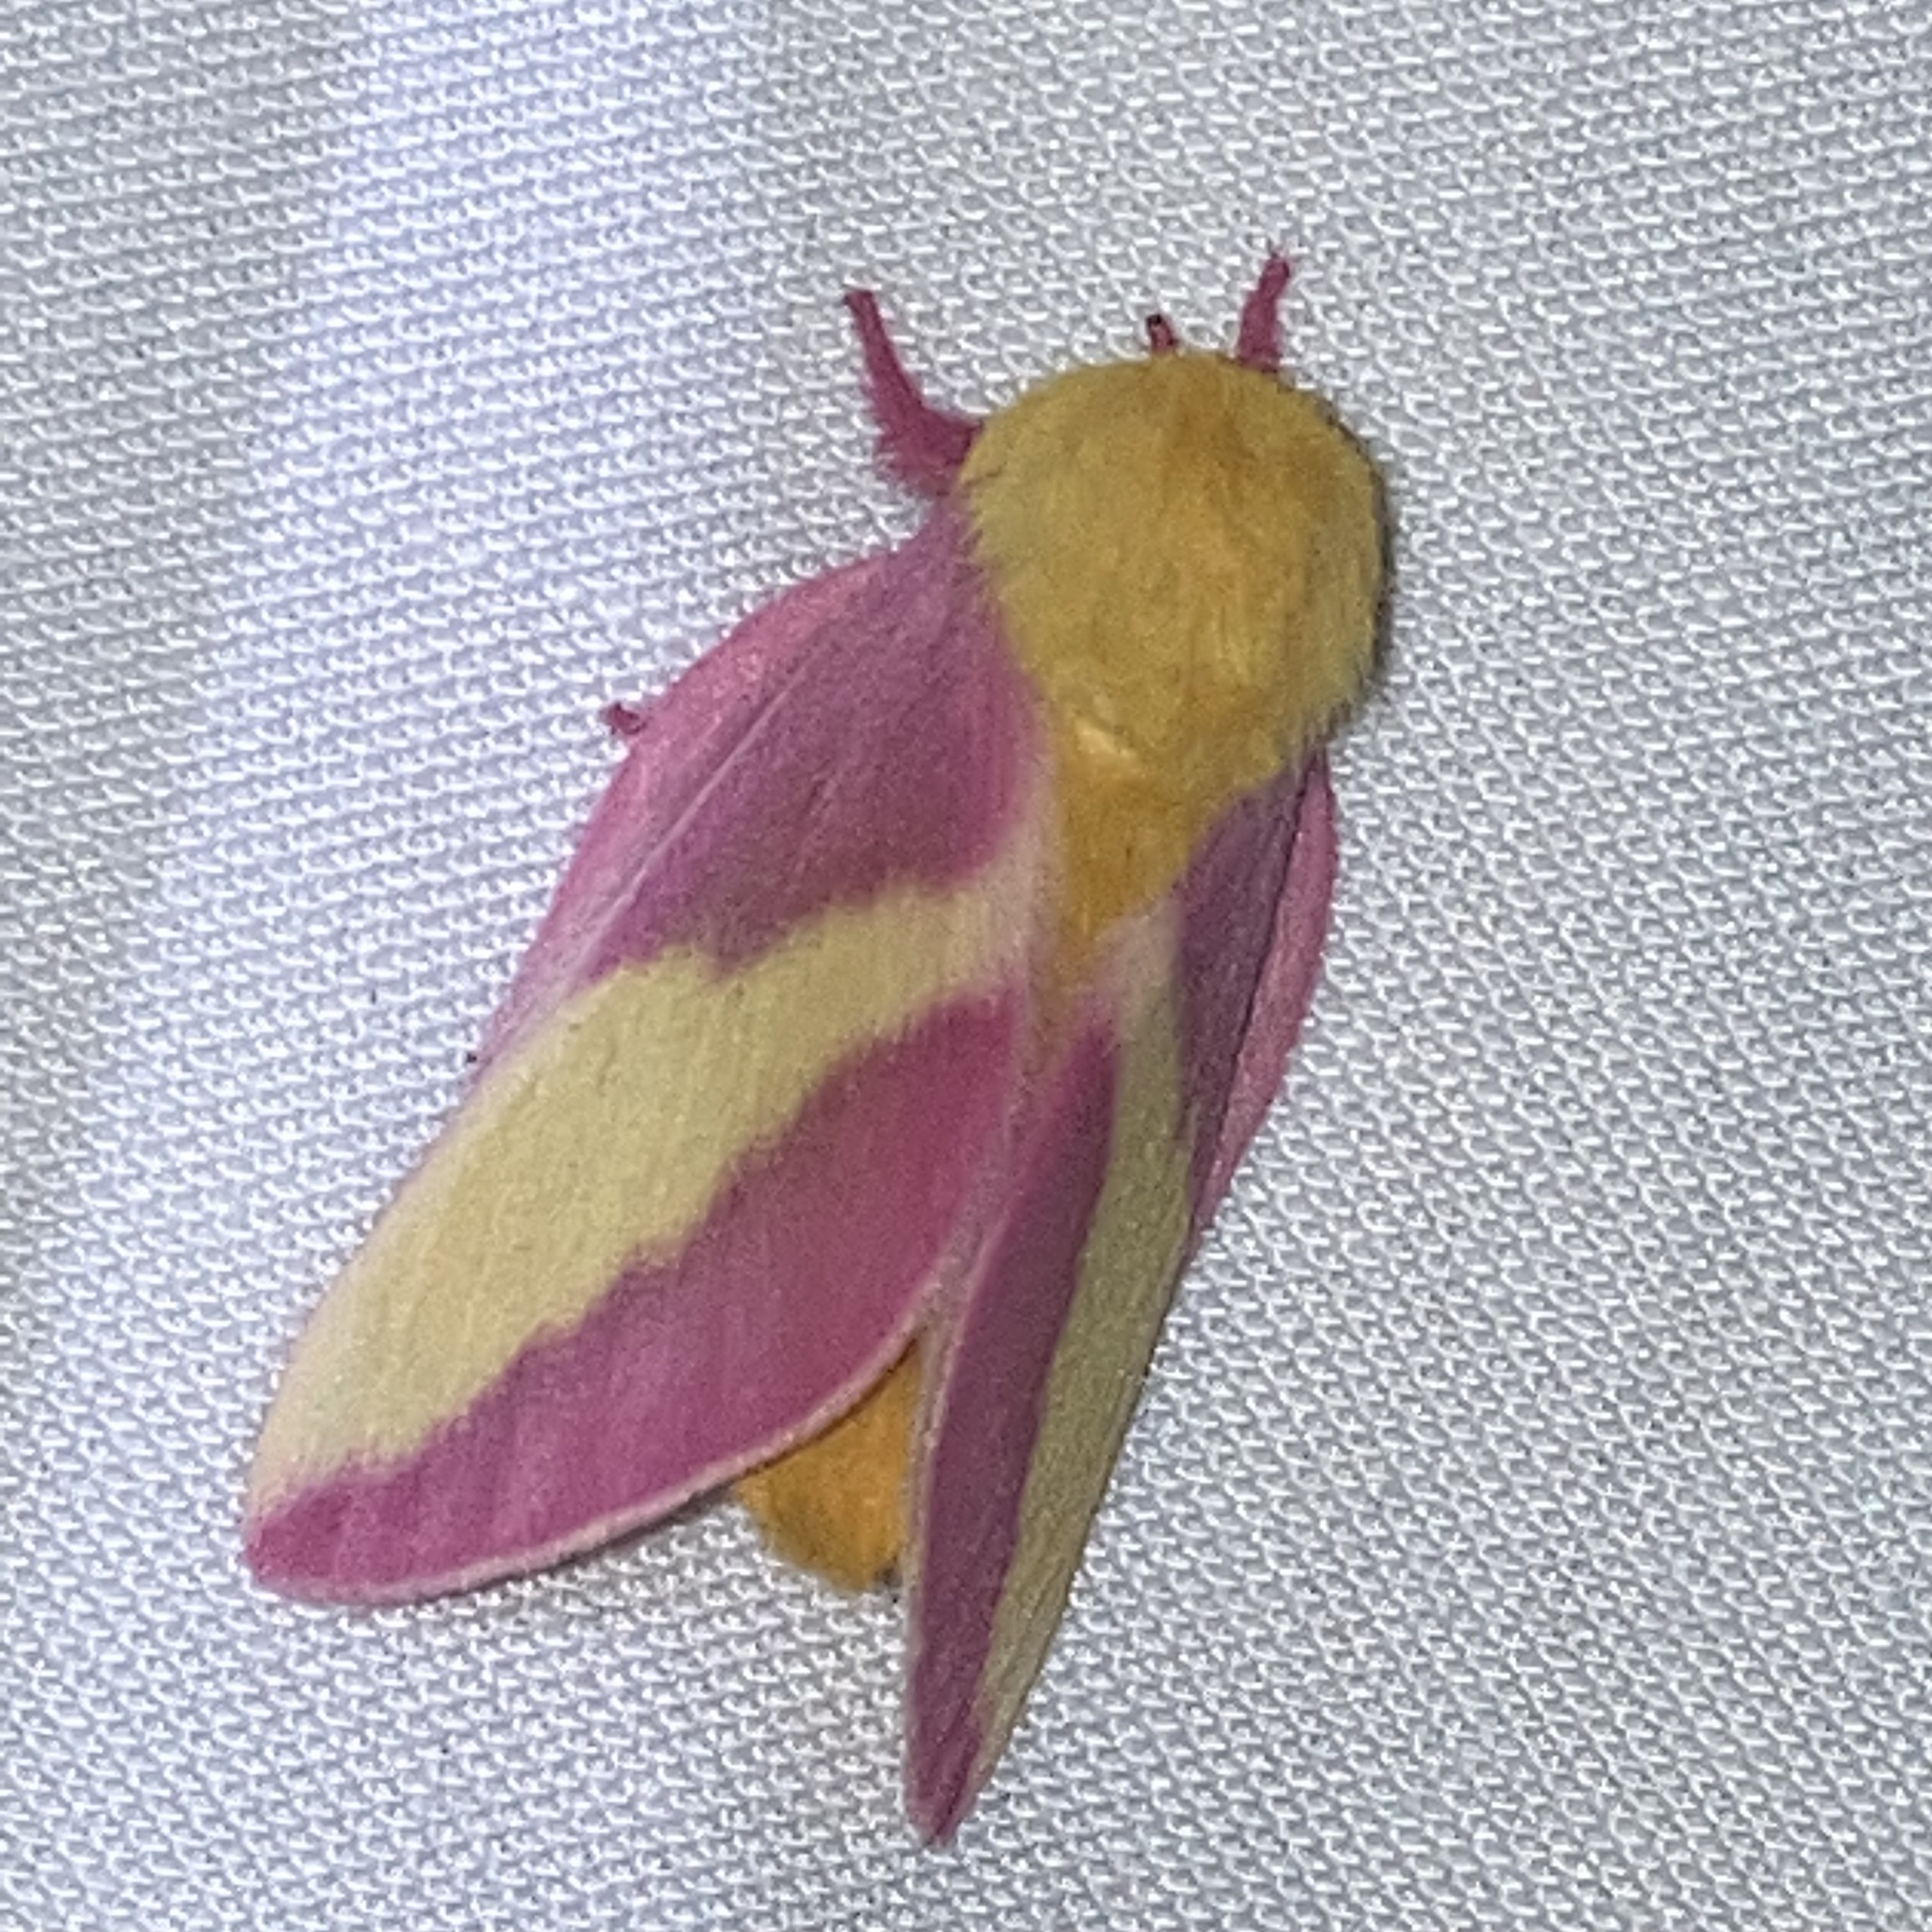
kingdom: Animalia
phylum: Arthropoda
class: Insecta
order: Lepidoptera
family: Saturniidae
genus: Dryocampa
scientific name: Dryocampa rubicunda
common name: Rosy maple moth
